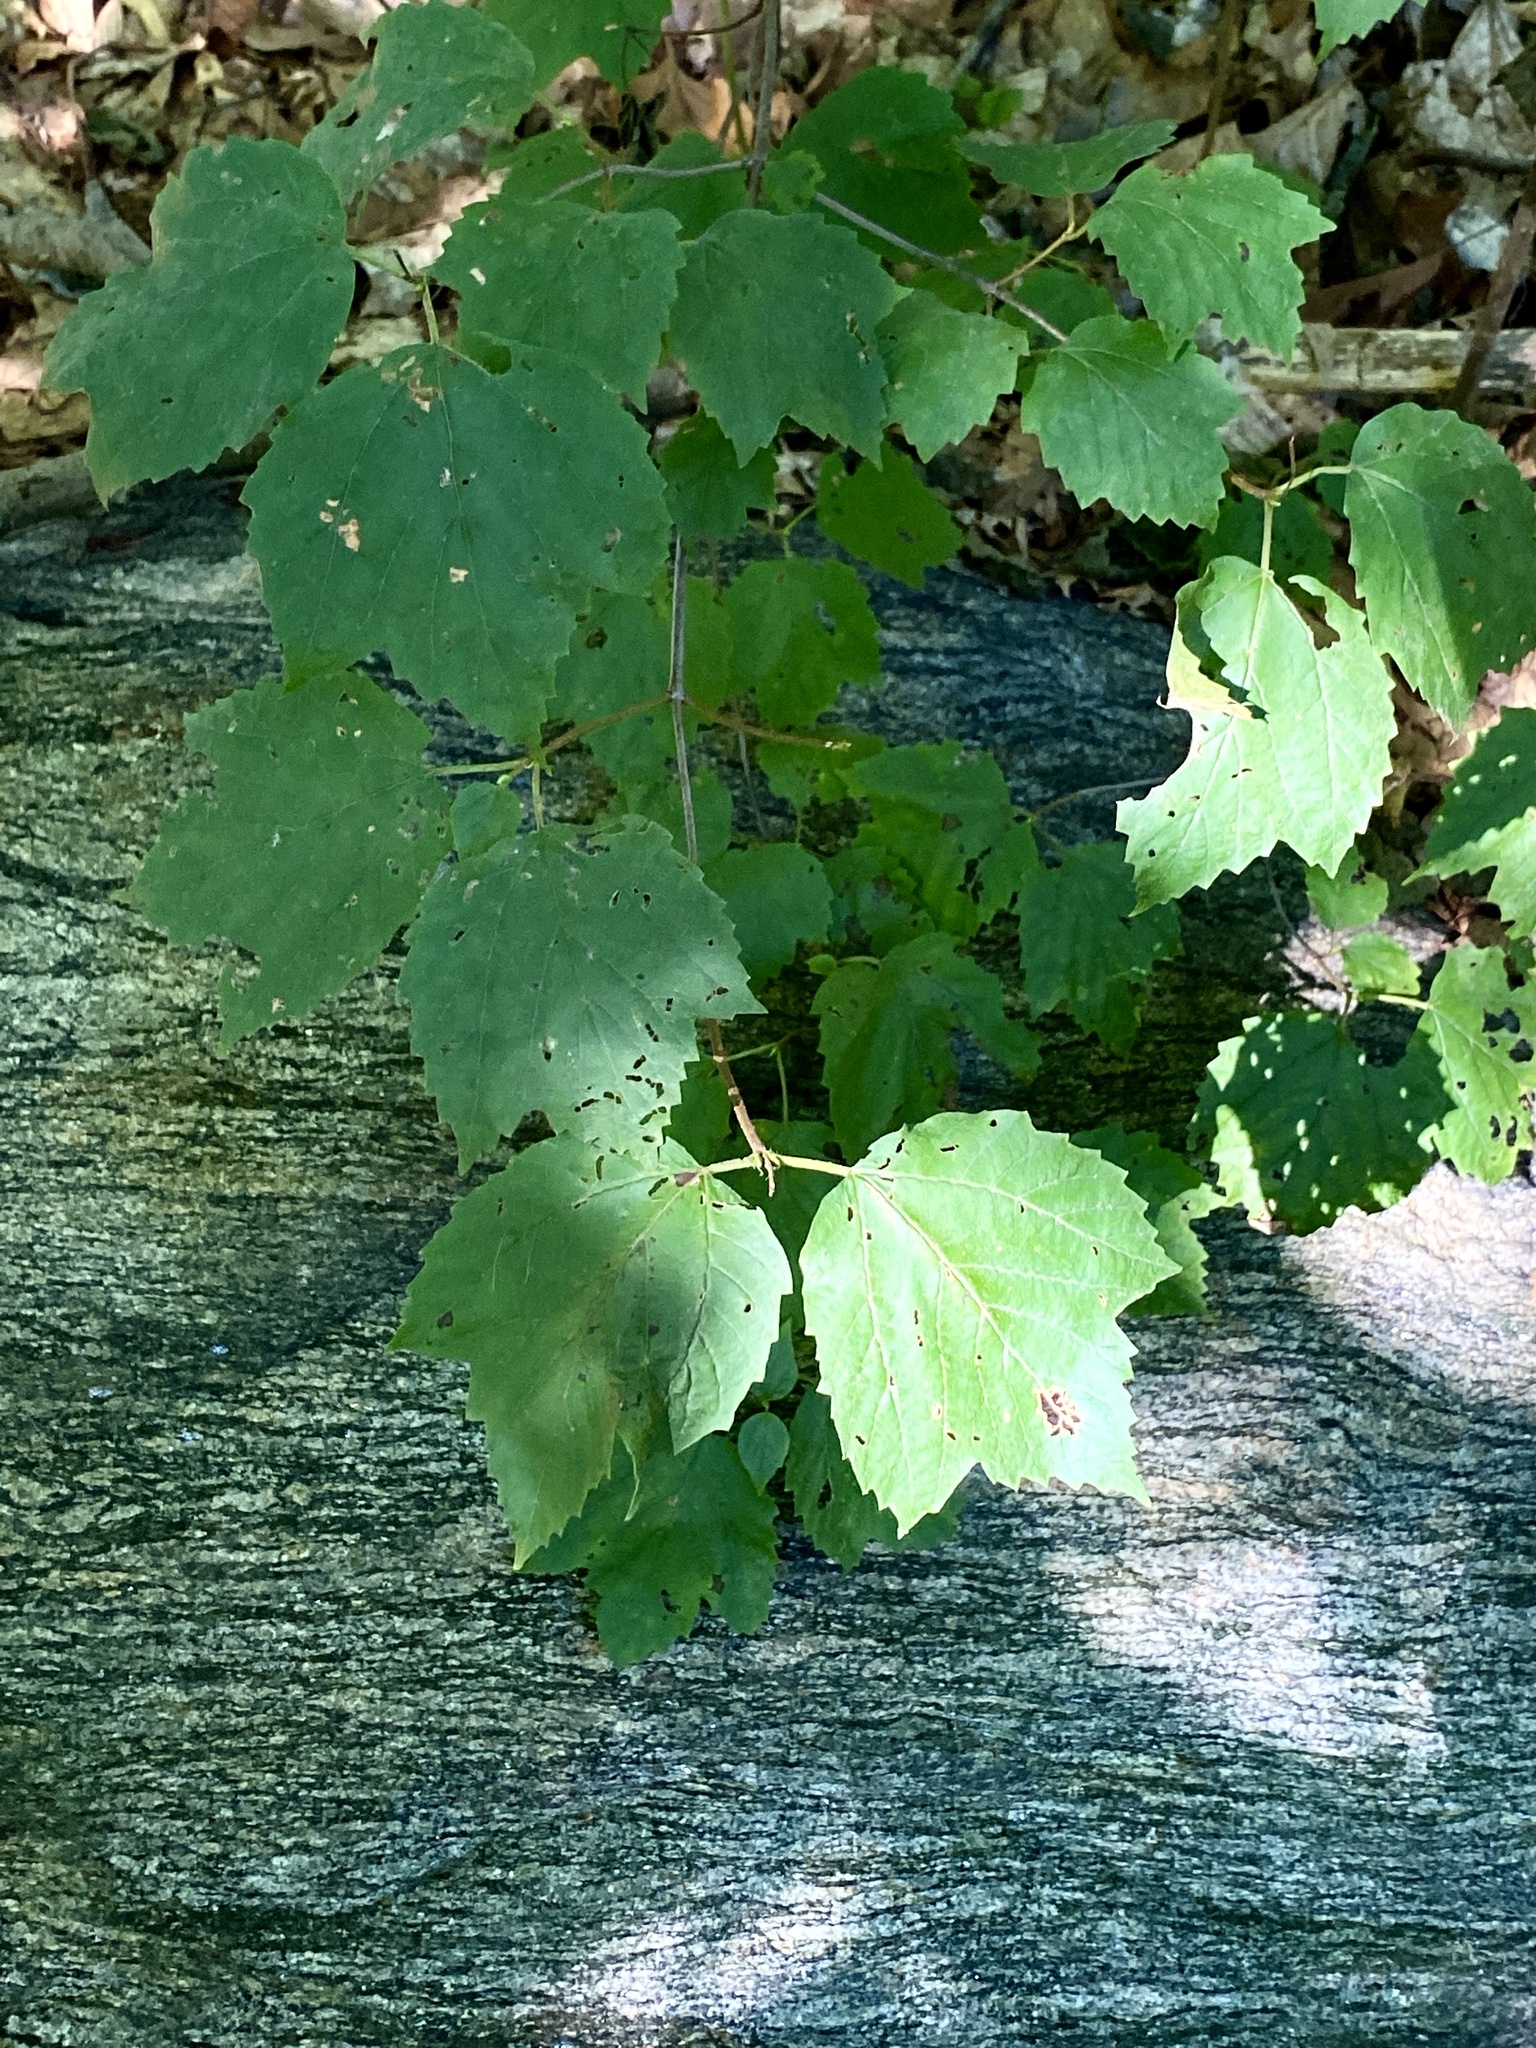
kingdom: Plantae
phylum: Tracheophyta
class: Magnoliopsida
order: Dipsacales
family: Viburnaceae
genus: Viburnum
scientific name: Viburnum acerifolium
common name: Dockmackie
